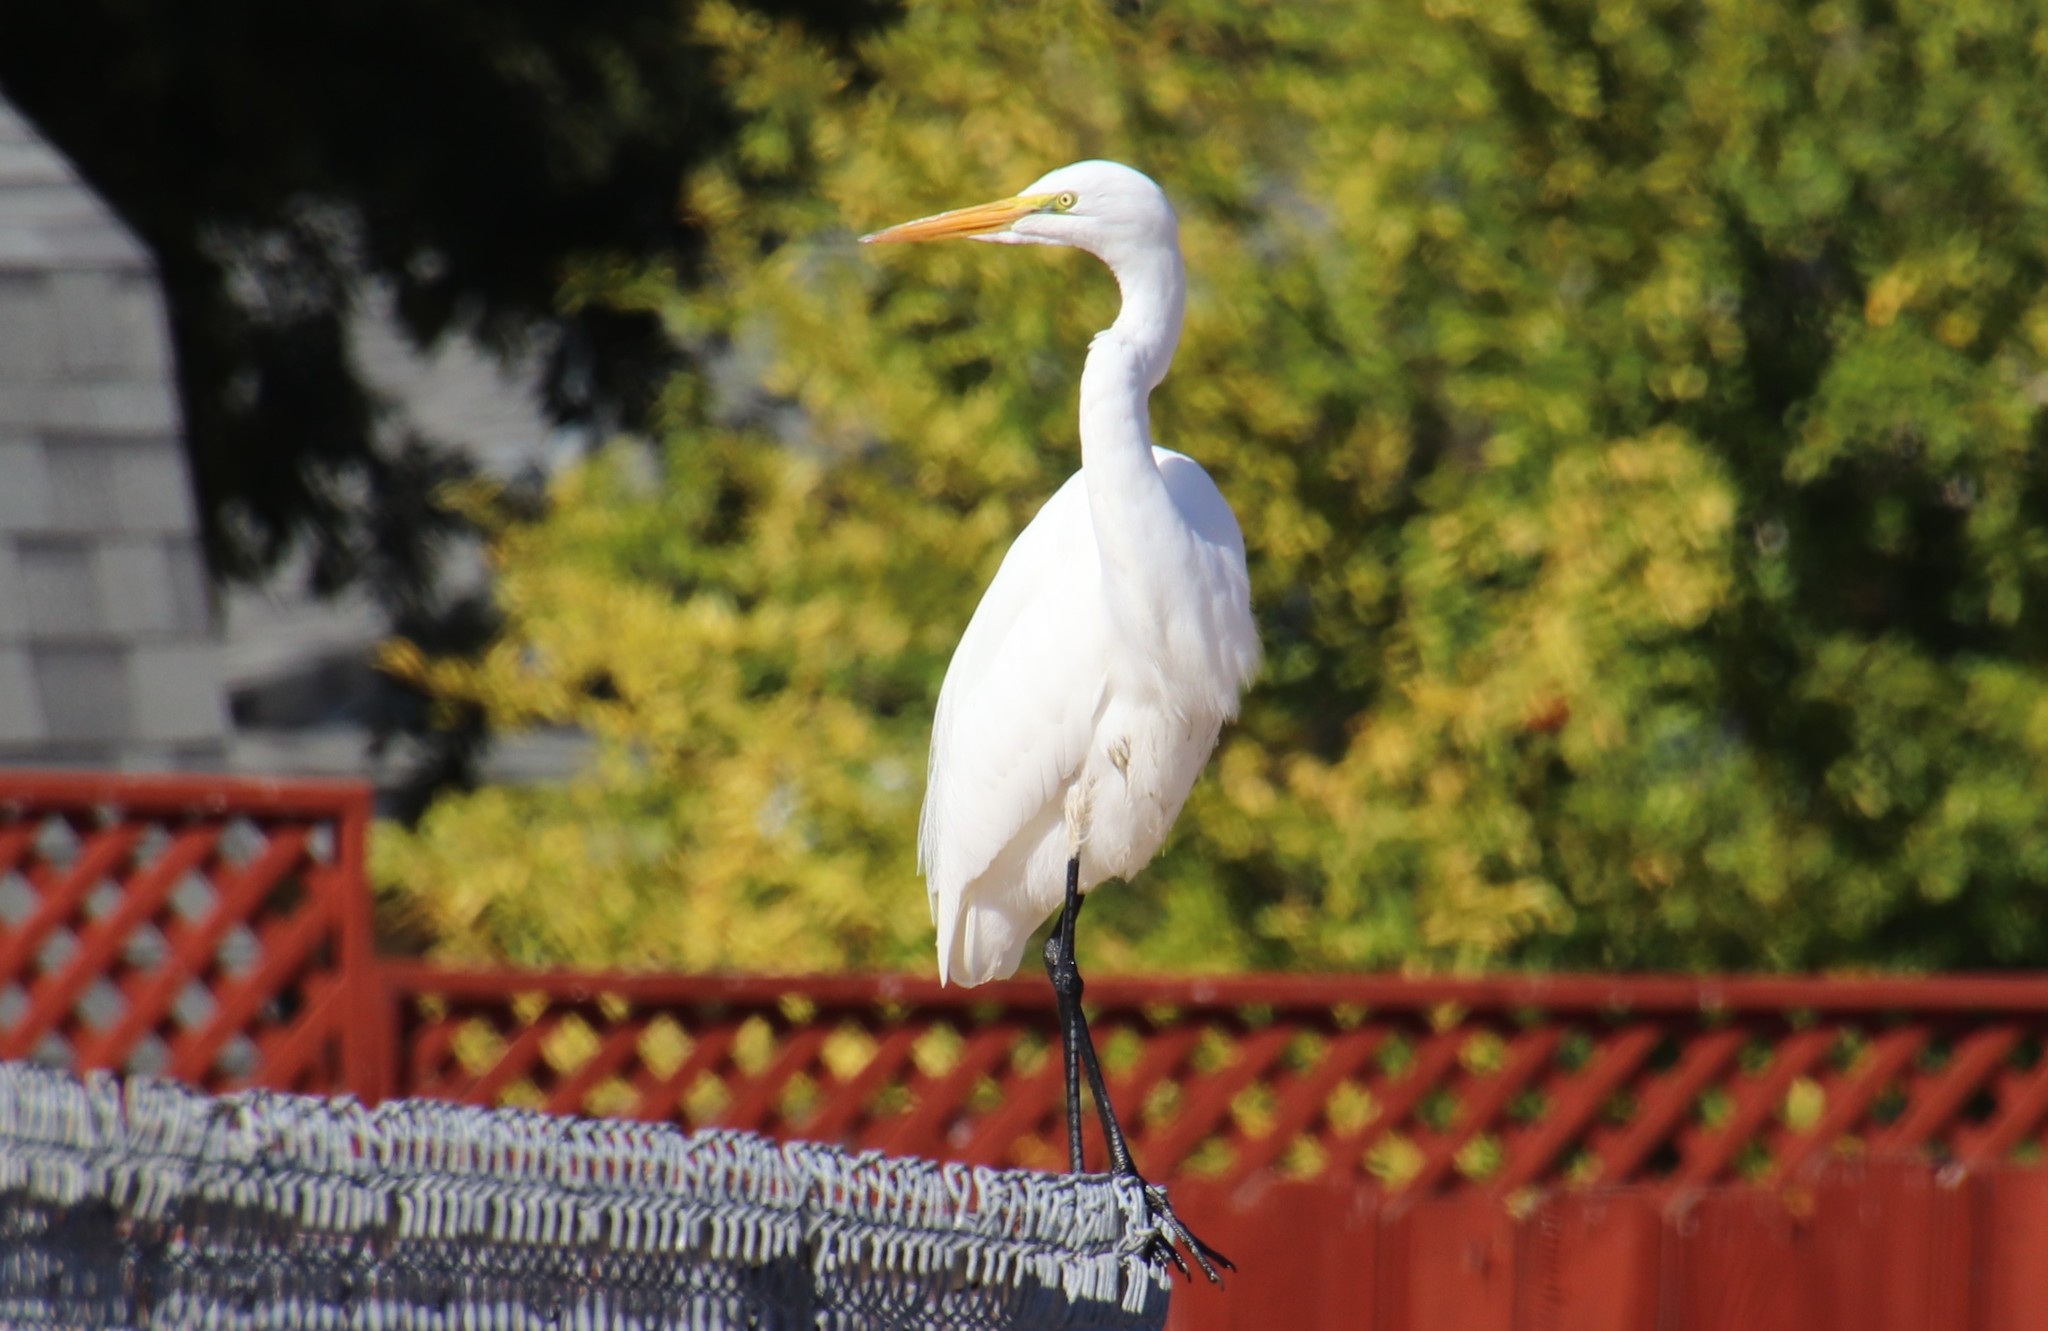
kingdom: Animalia
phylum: Chordata
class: Aves
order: Pelecaniformes
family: Ardeidae
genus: Ardea
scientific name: Ardea alba
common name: Great egret
